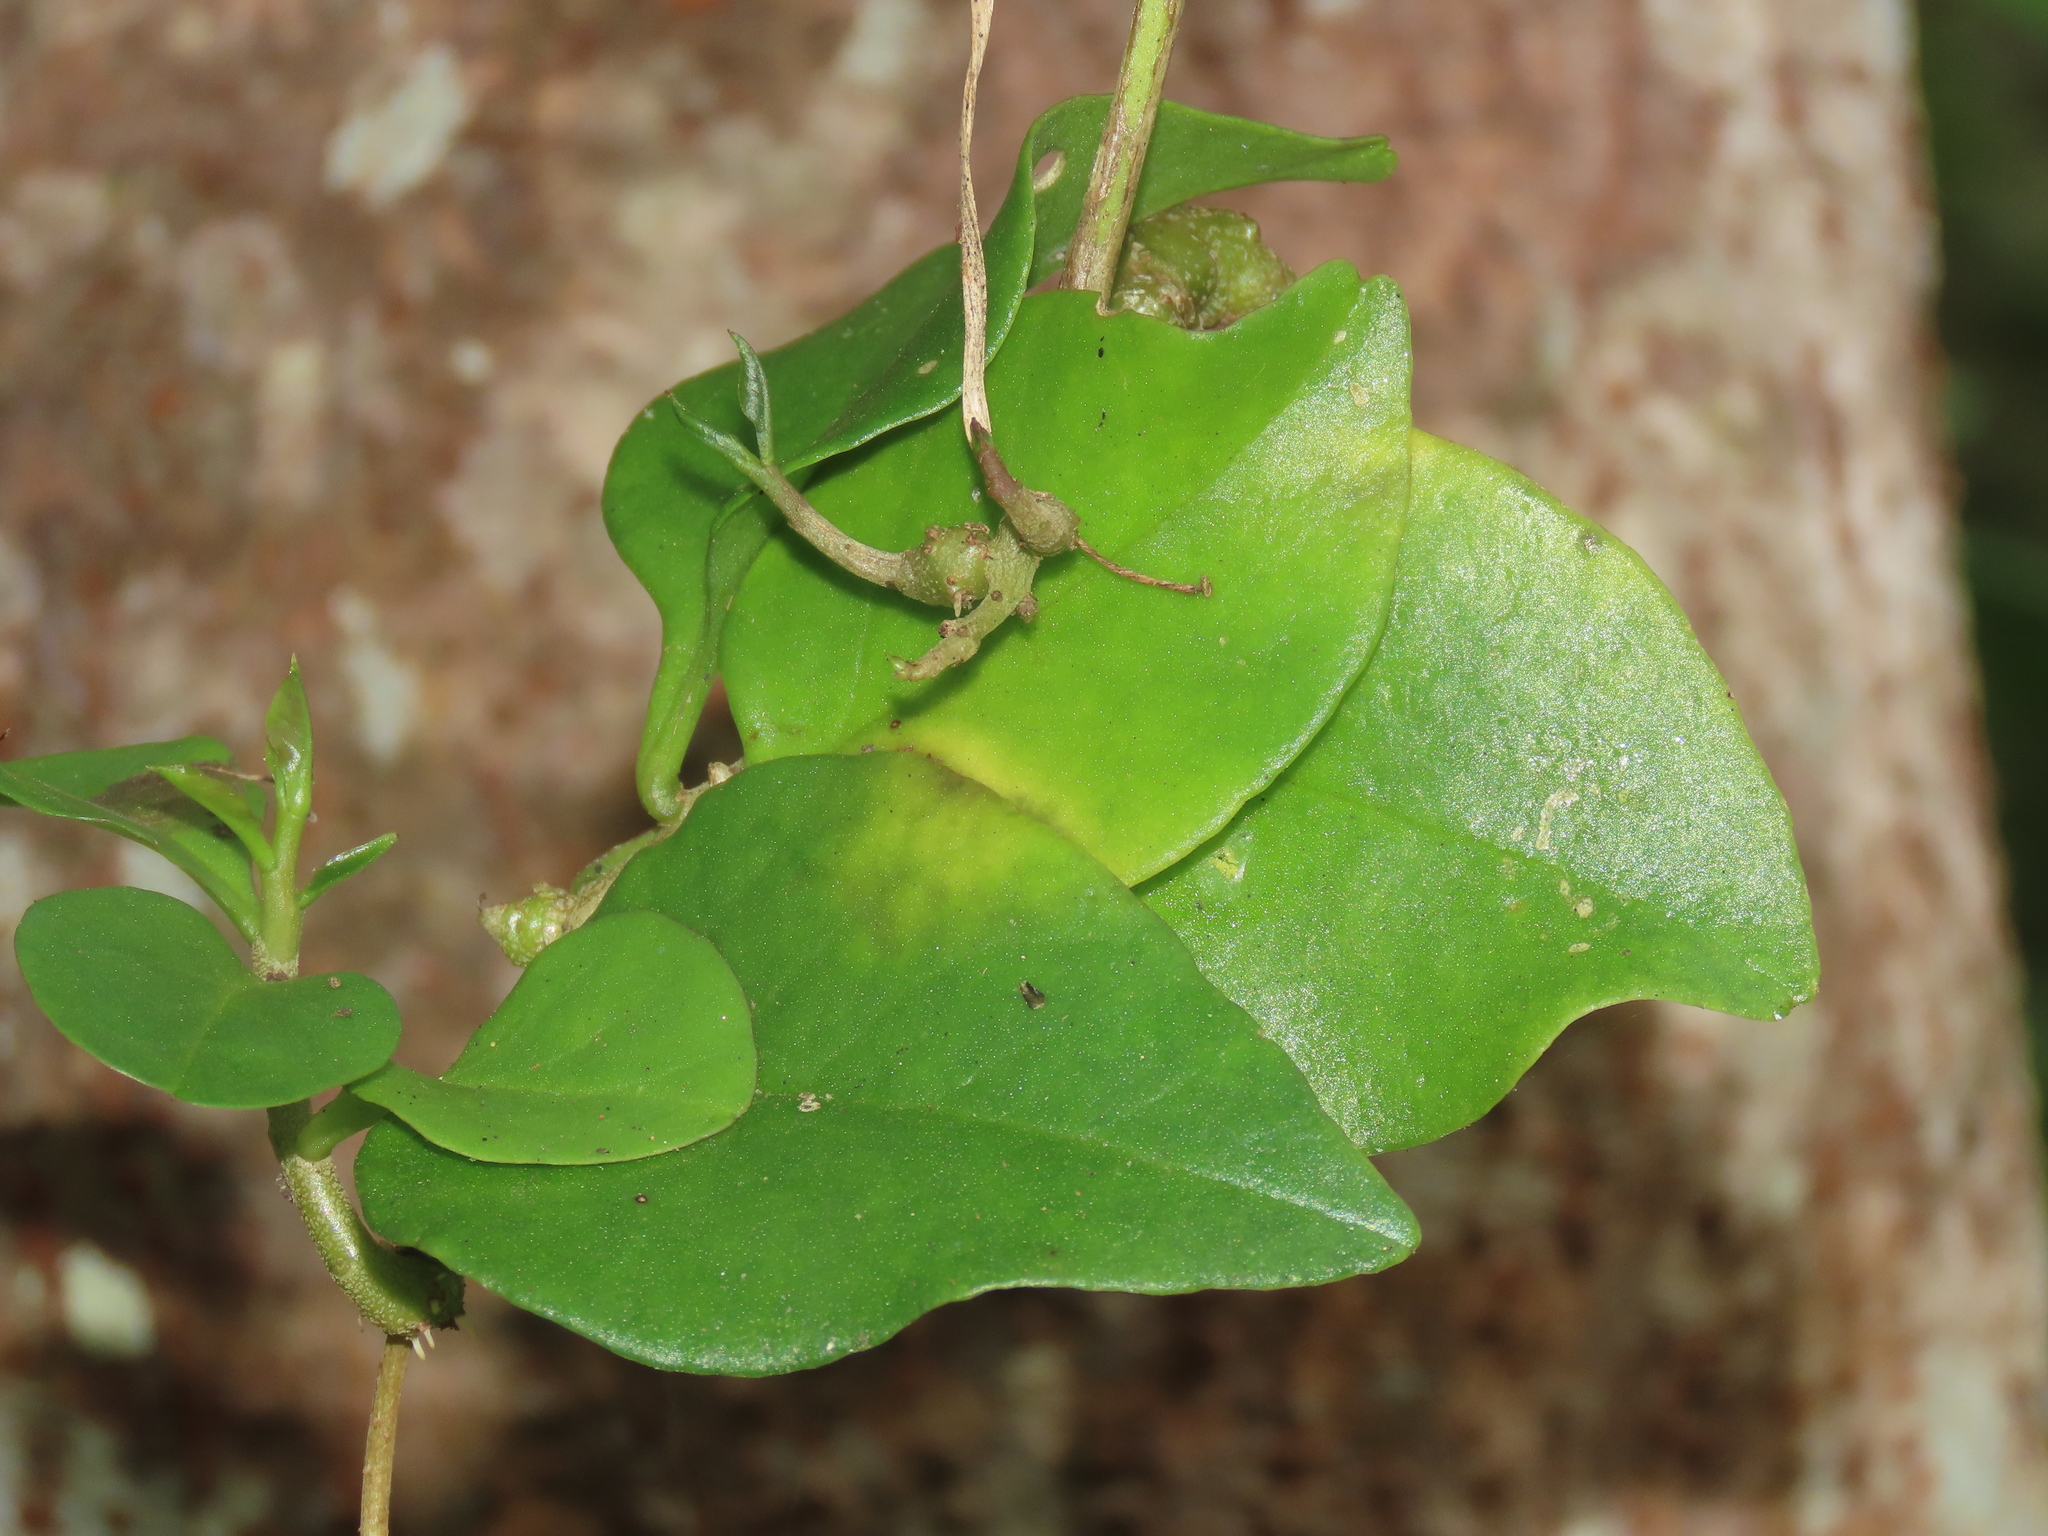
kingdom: Plantae
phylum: Tracheophyta
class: Magnoliopsida
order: Caryophyllales
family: Basellaceae
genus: Anredera
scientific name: Anredera cordifolia
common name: Heartleaf madeiravine
